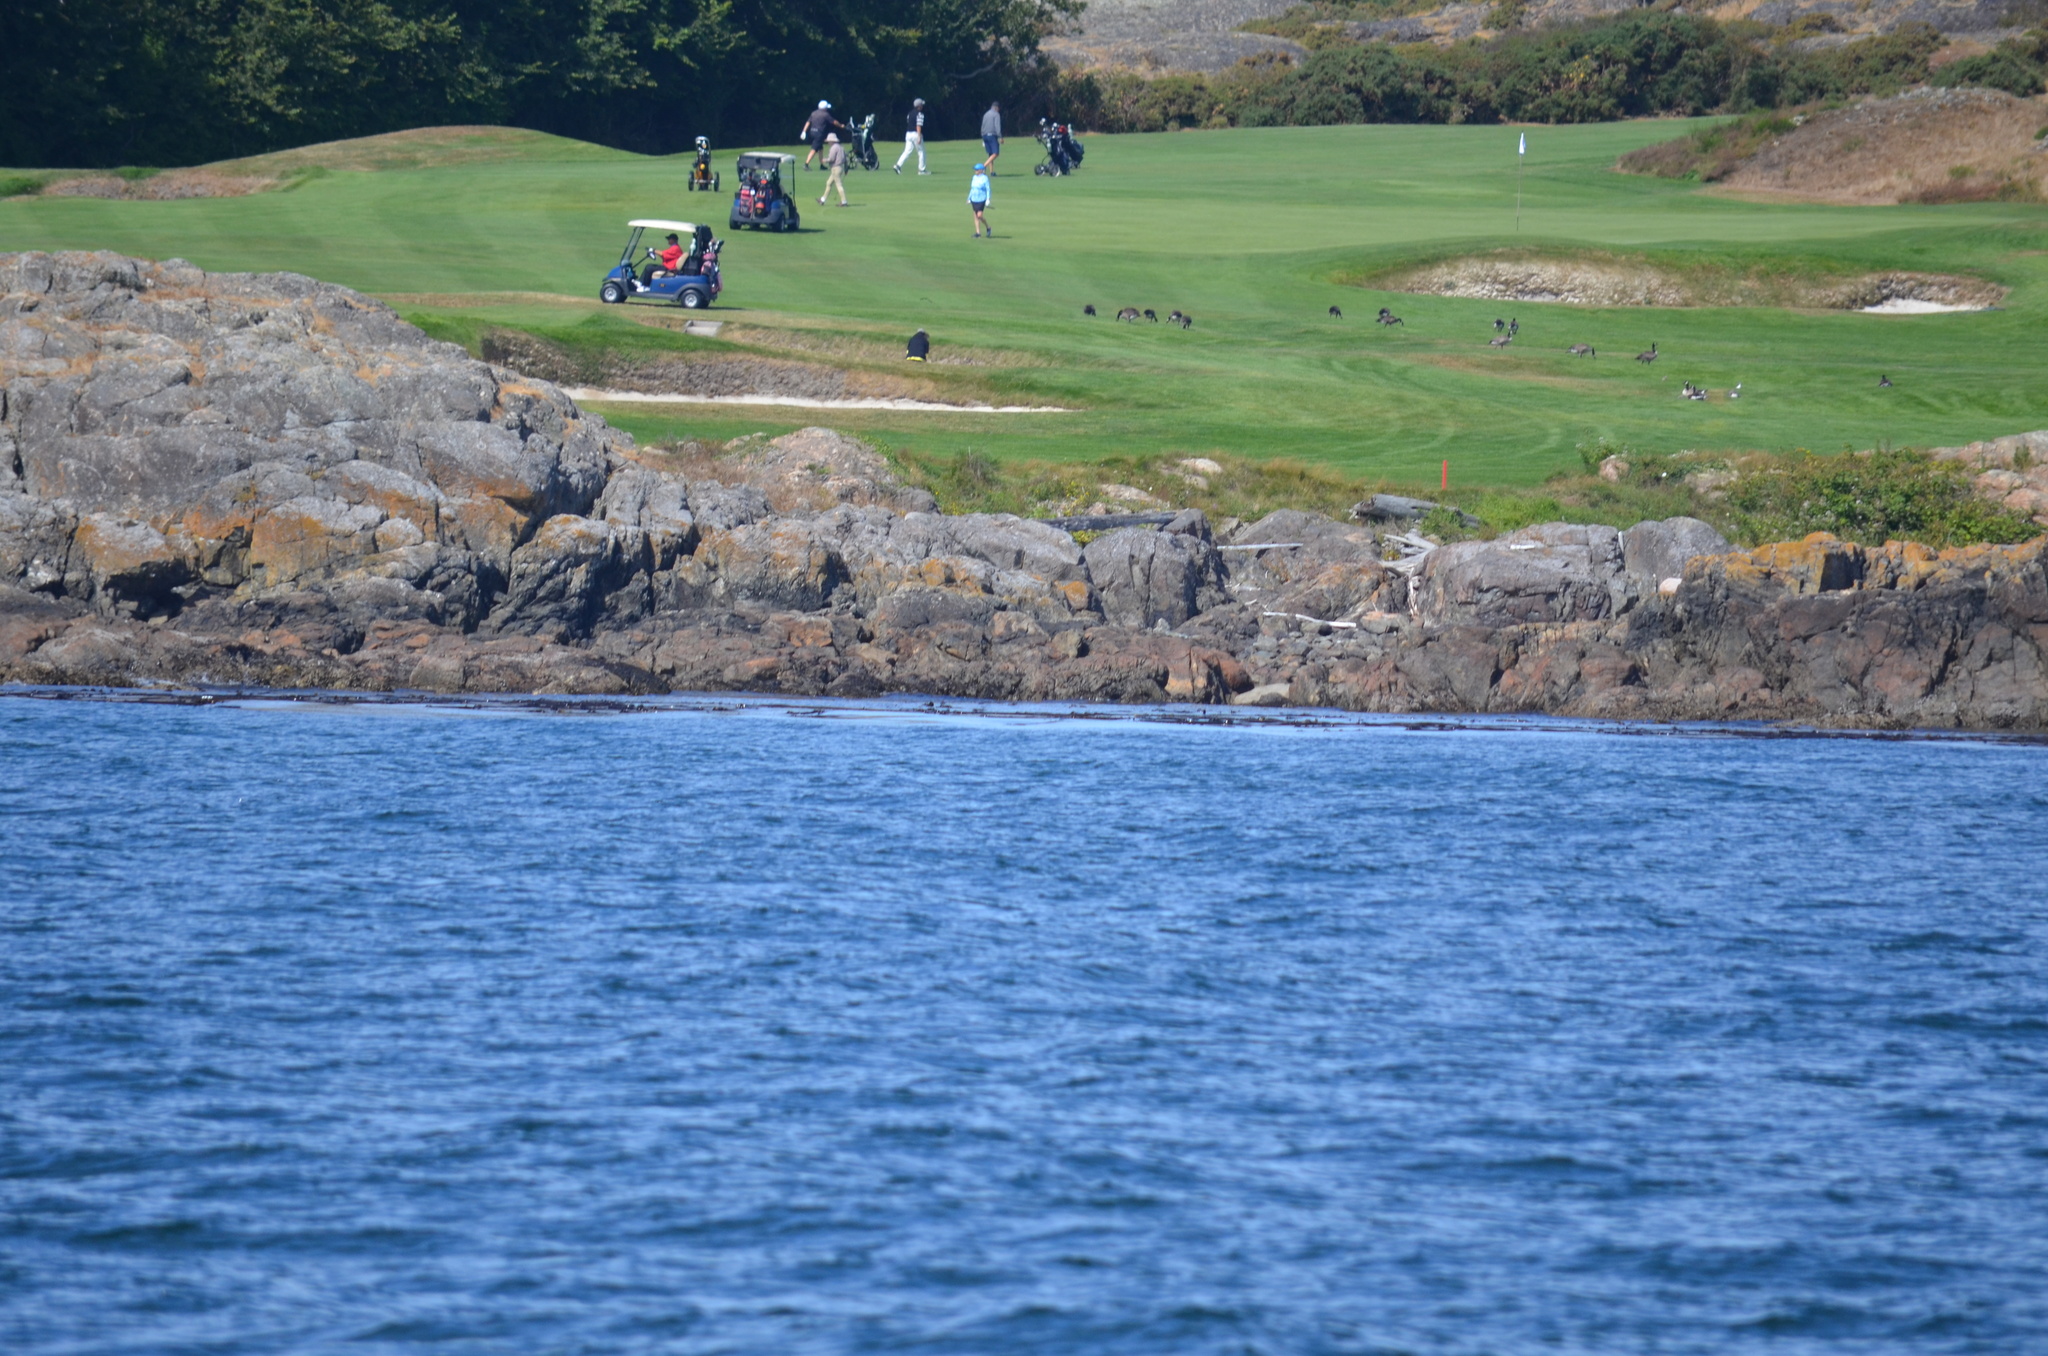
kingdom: Animalia
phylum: Chordata
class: Aves
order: Anseriformes
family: Anatidae
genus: Branta
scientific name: Branta canadensis
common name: Canada goose
